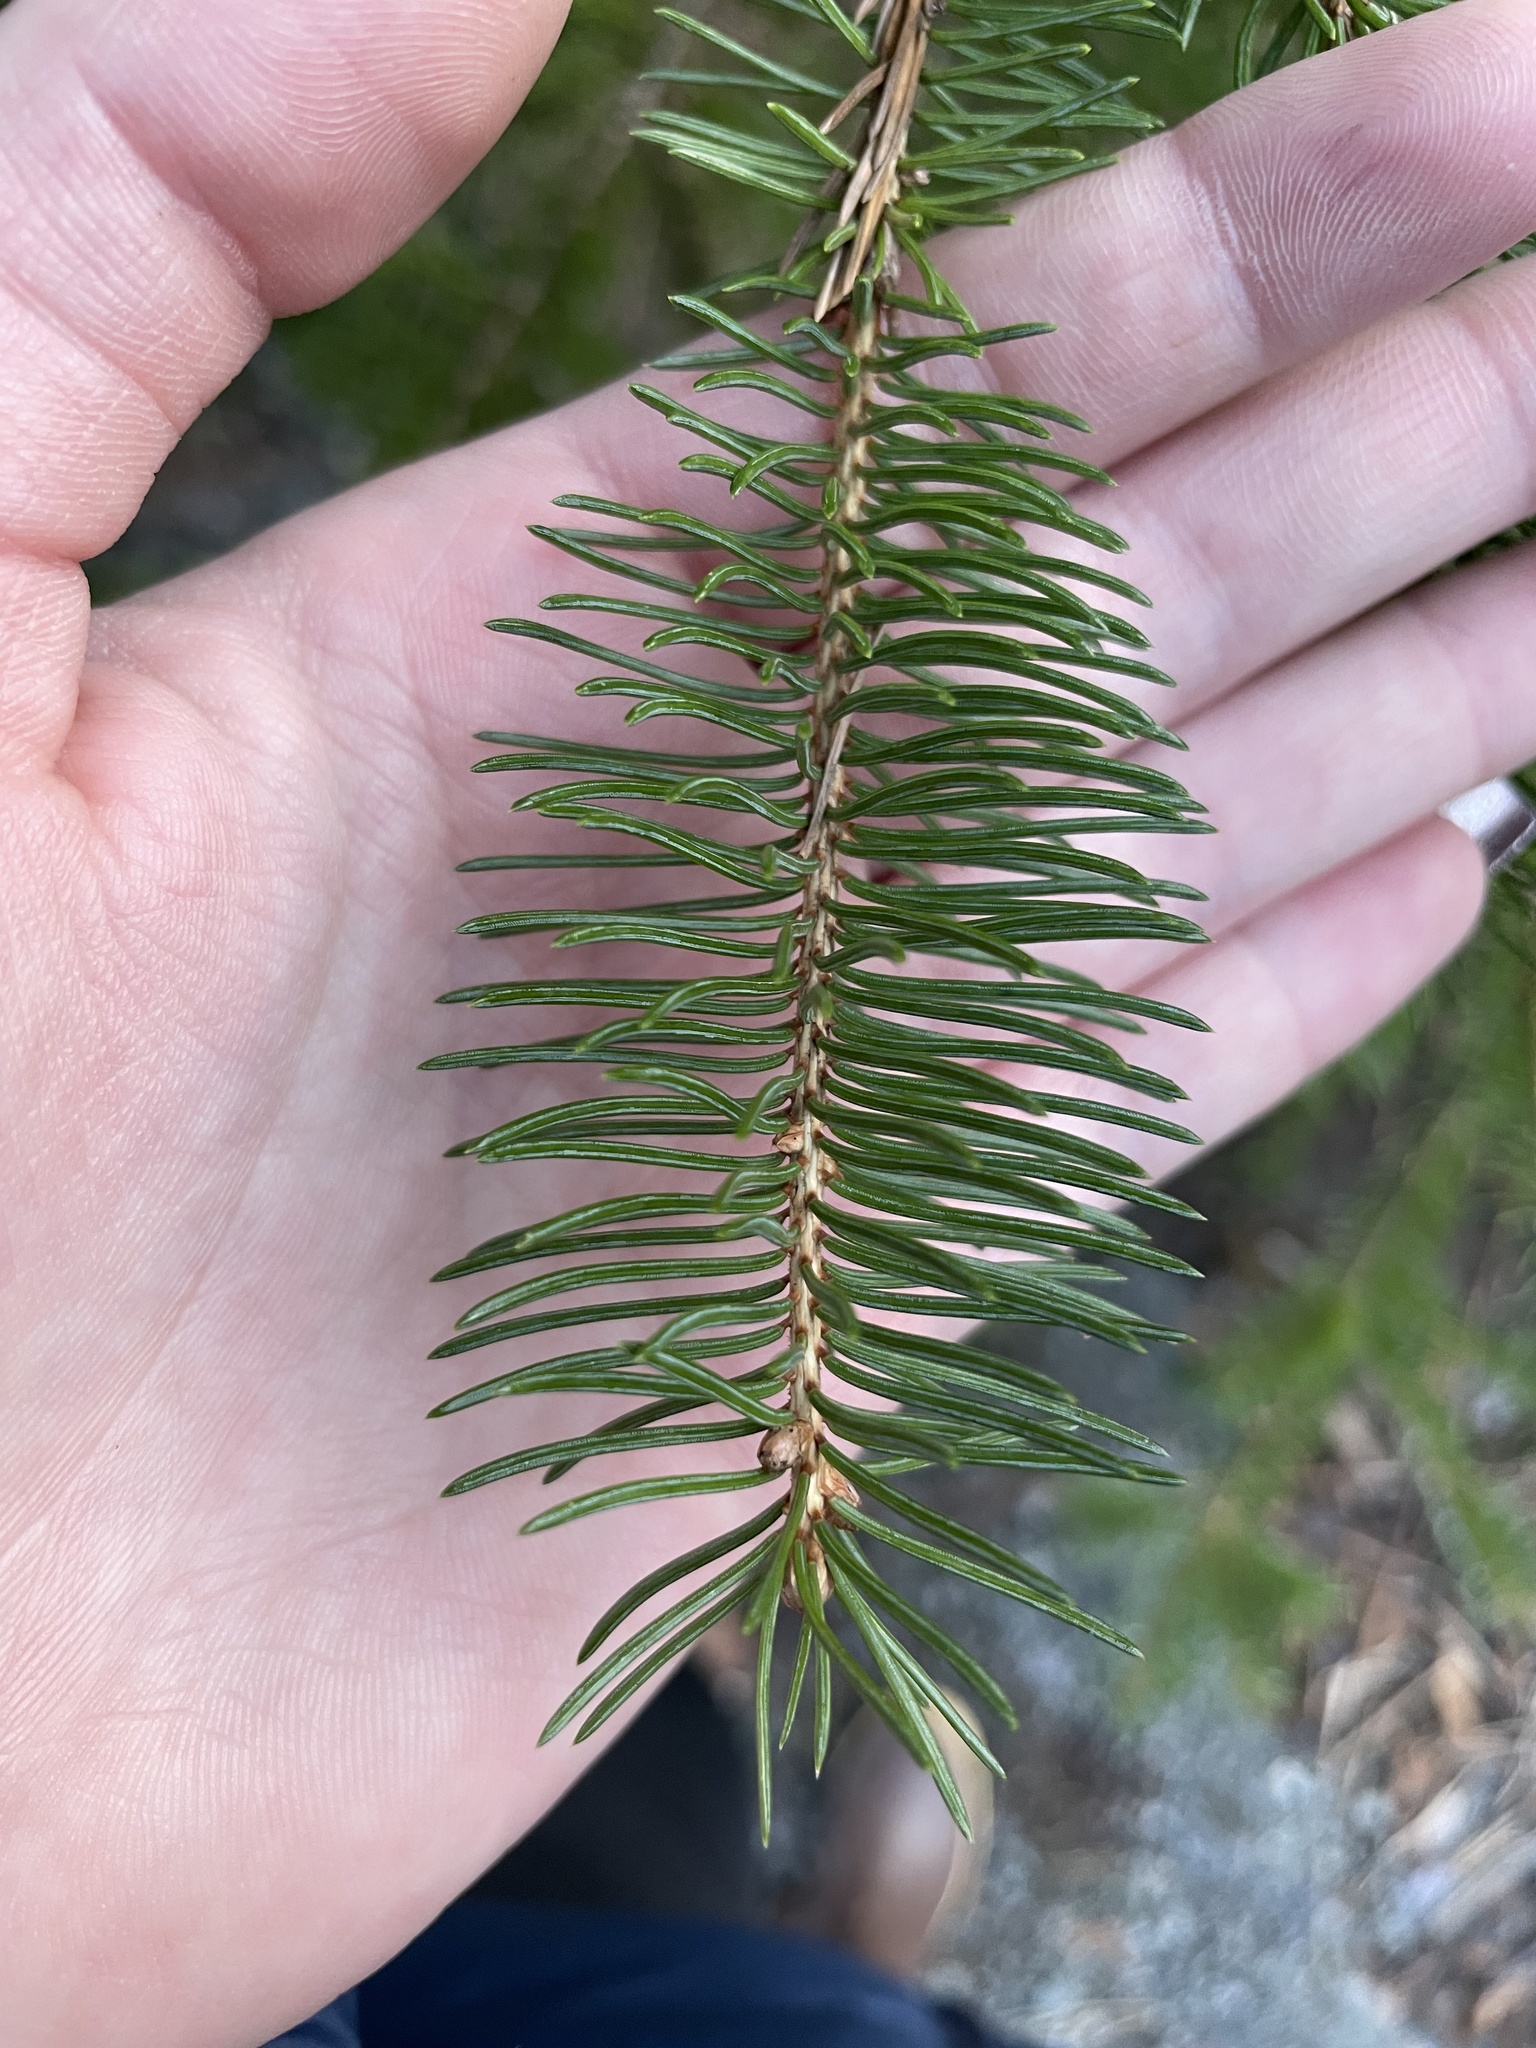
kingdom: Plantae
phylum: Tracheophyta
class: Pinopsida
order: Pinales
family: Pinaceae
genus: Picea
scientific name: Picea glauca
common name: White spruce
